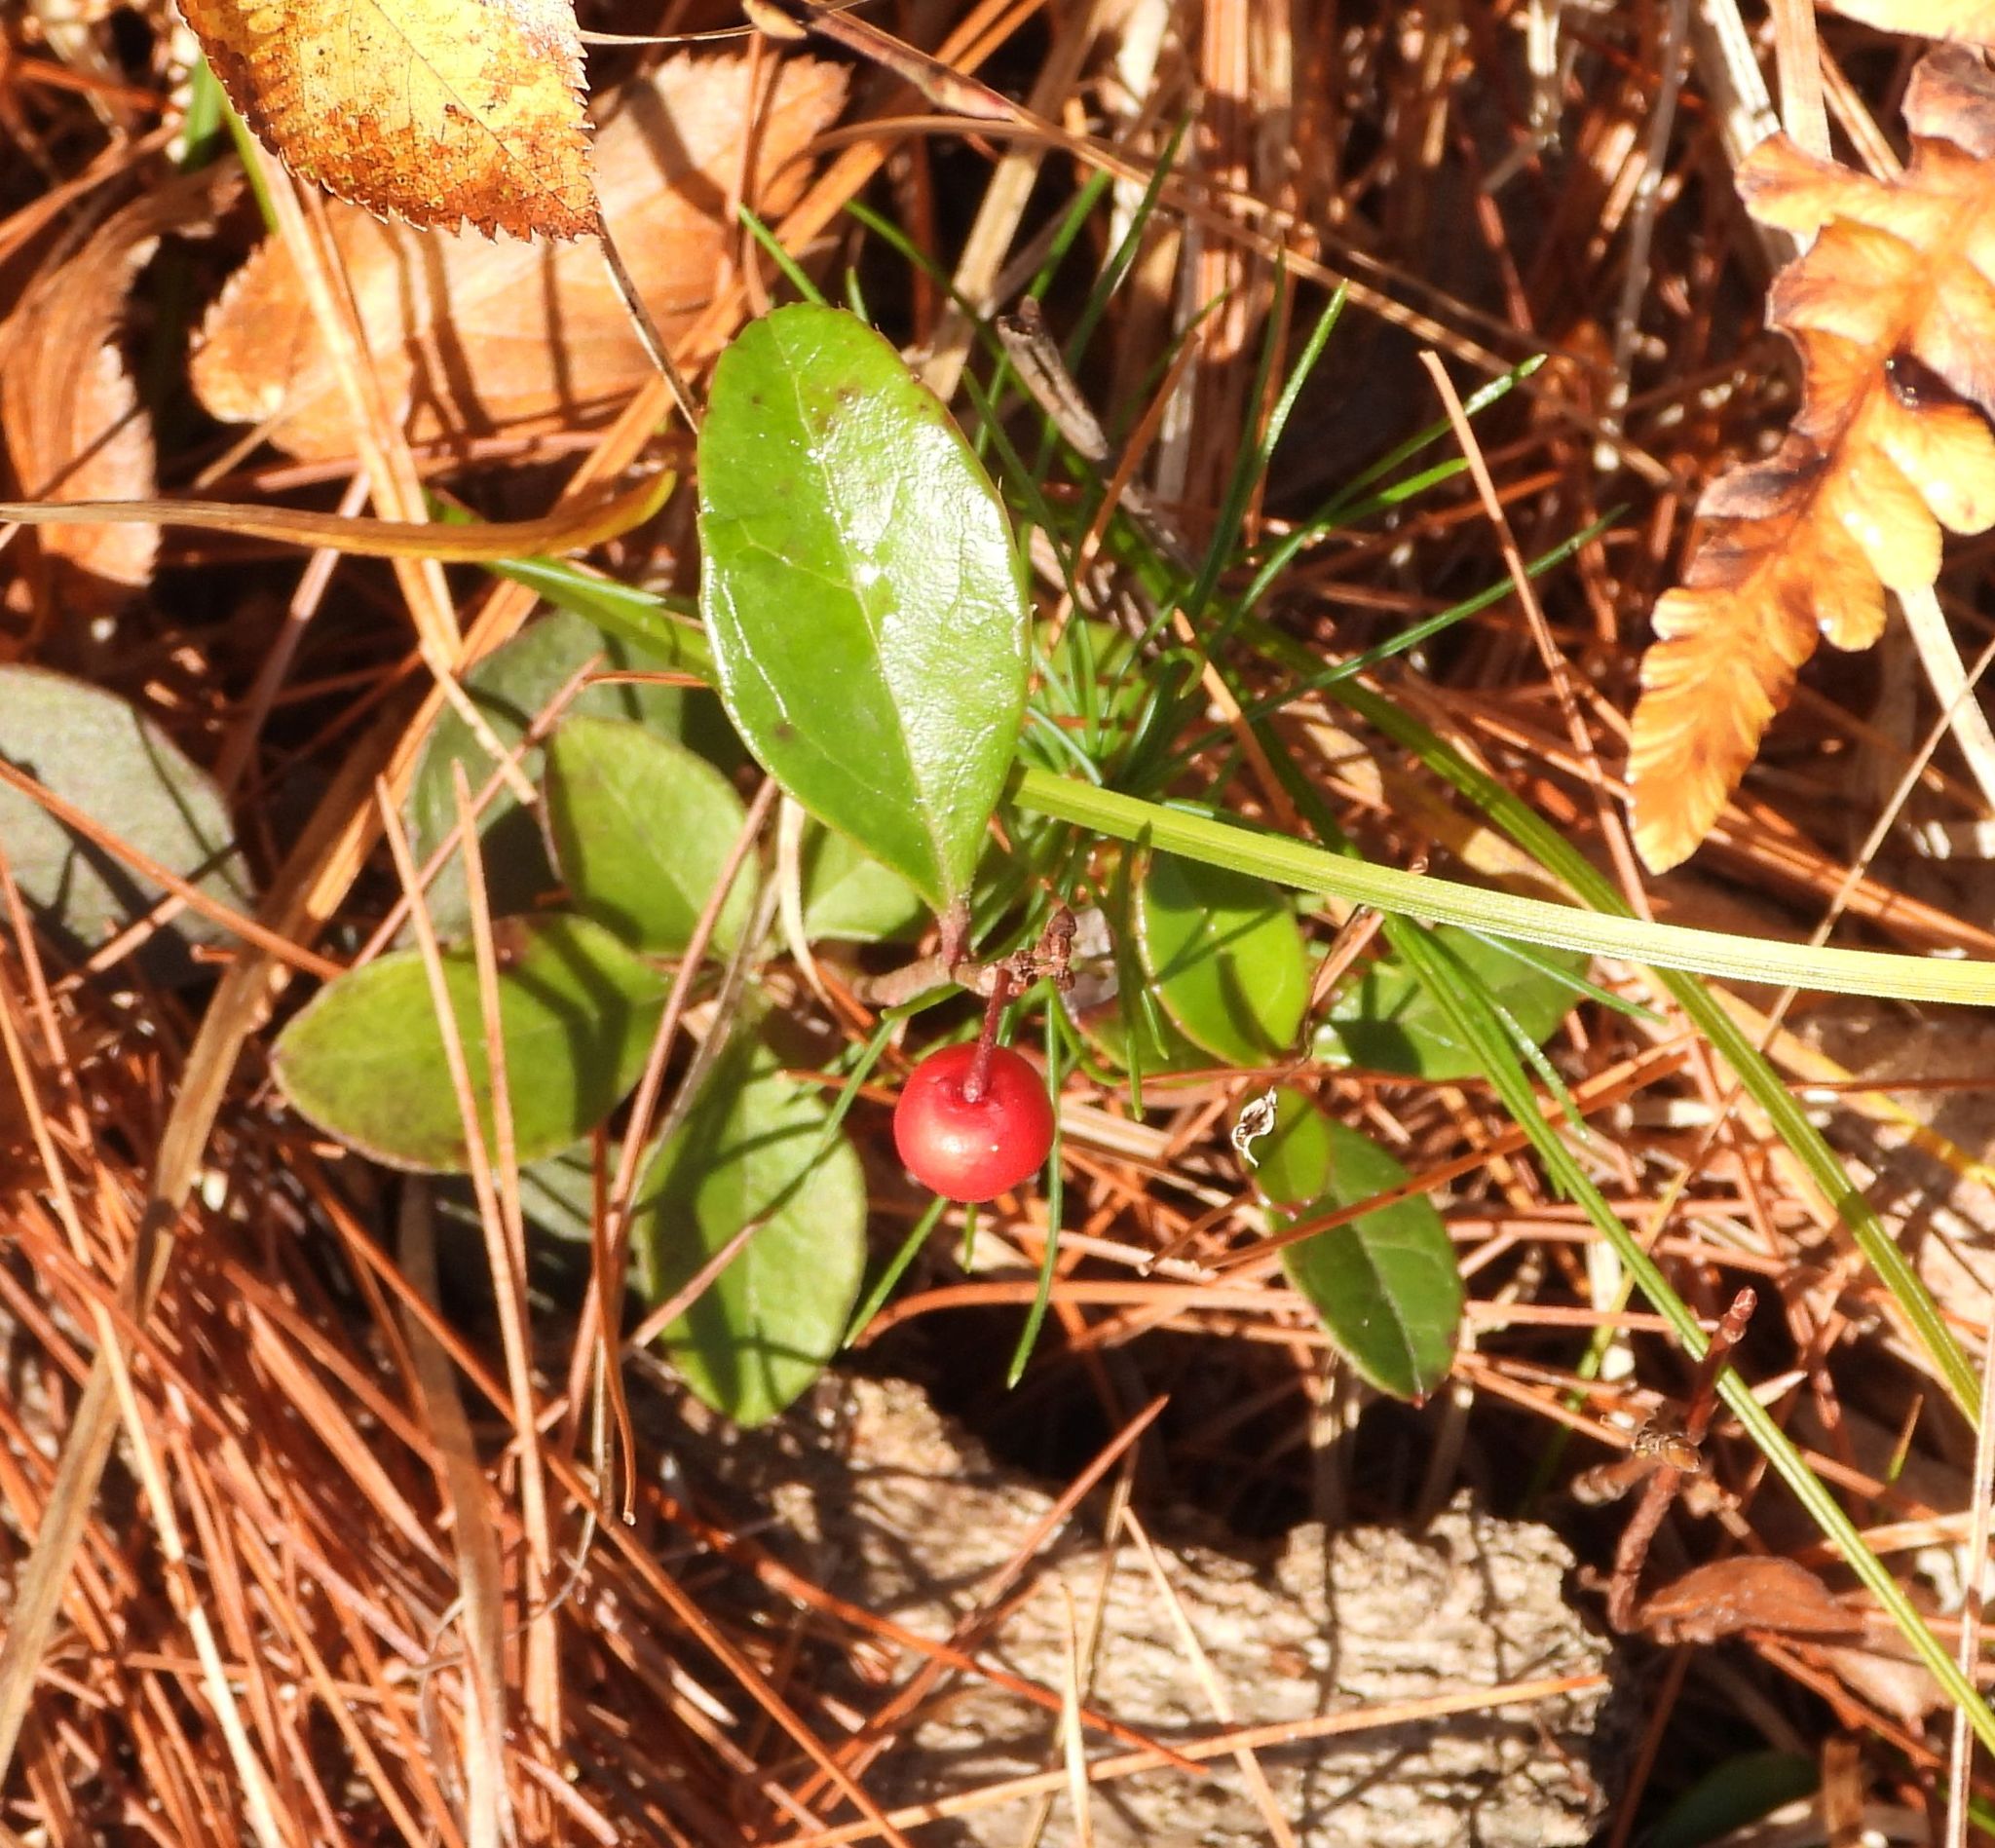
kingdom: Plantae
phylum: Tracheophyta
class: Magnoliopsida
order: Ericales
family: Ericaceae
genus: Gaultheria
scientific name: Gaultheria procumbens
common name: Checkerberry
